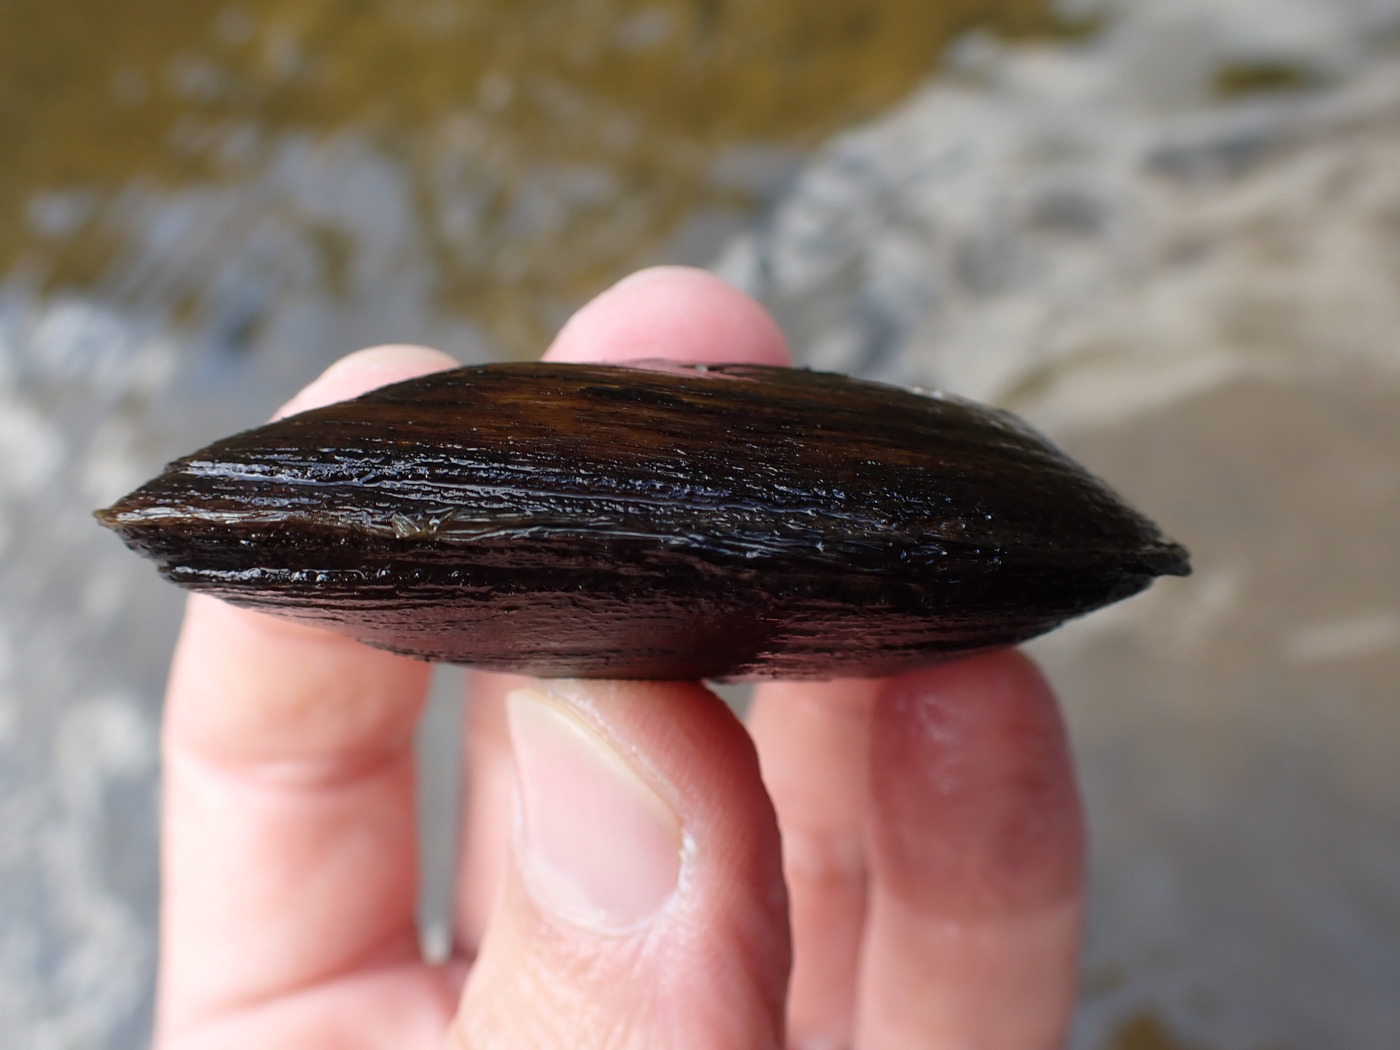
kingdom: Animalia
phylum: Mollusca
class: Bivalvia
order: Unionida
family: Unionidae
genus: Eurynia
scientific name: Eurynia dilatata
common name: Spike
